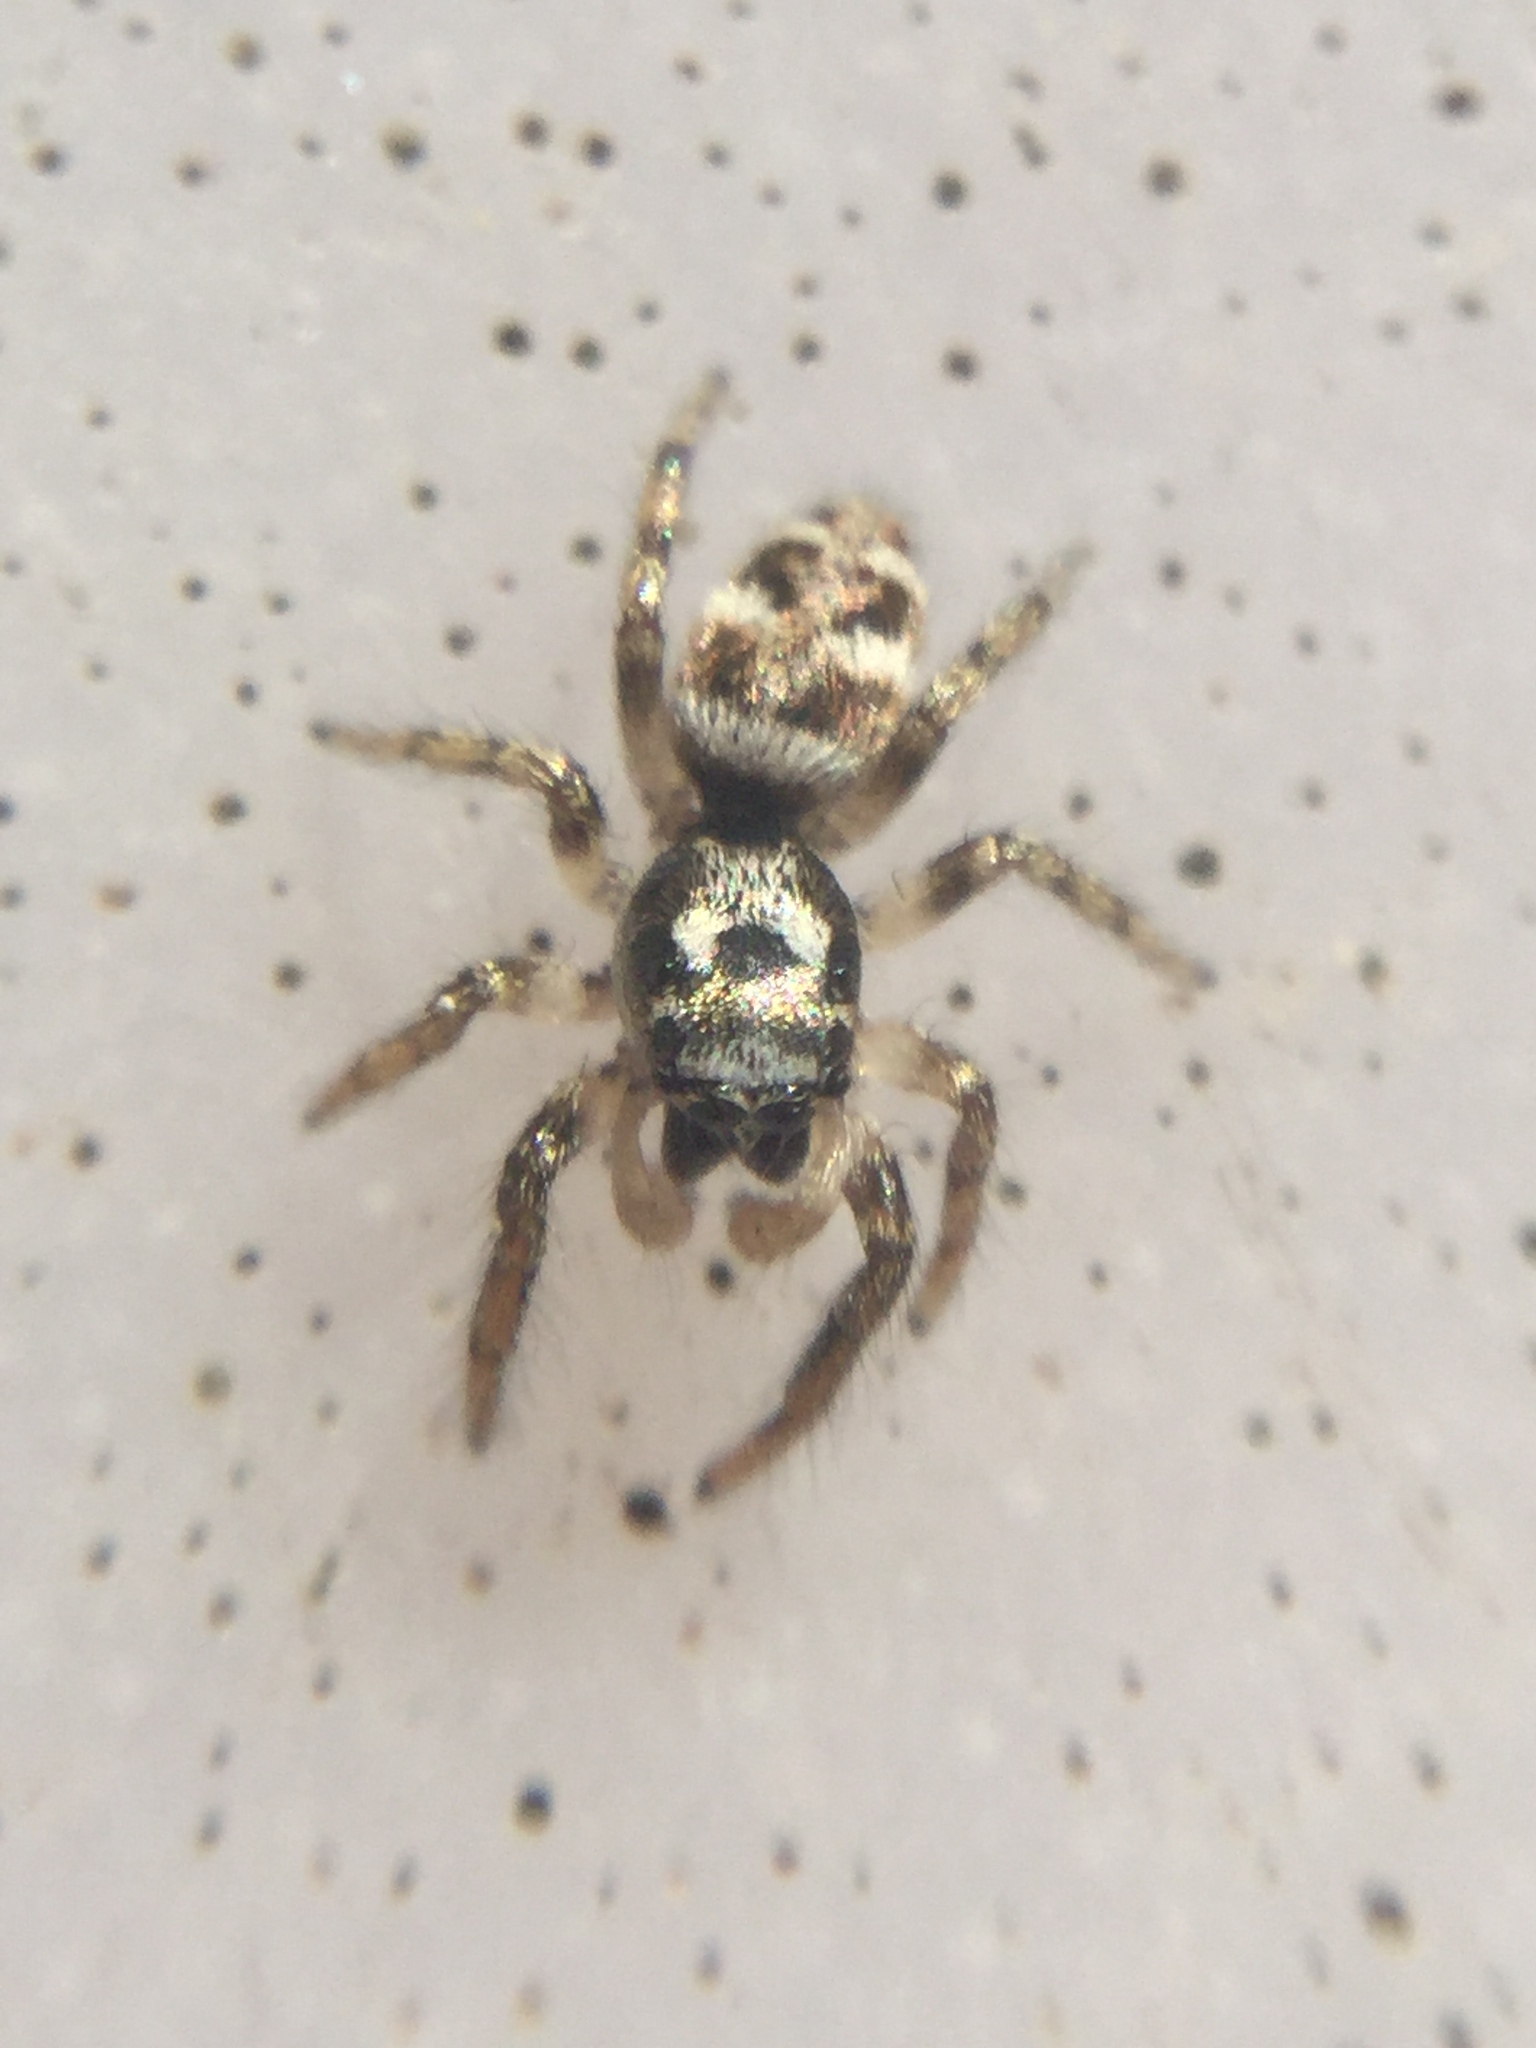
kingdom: Animalia
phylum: Arthropoda
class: Arachnida
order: Araneae
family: Salticidae
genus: Salticus
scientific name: Salticus scenicus
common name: Zebra jumper
